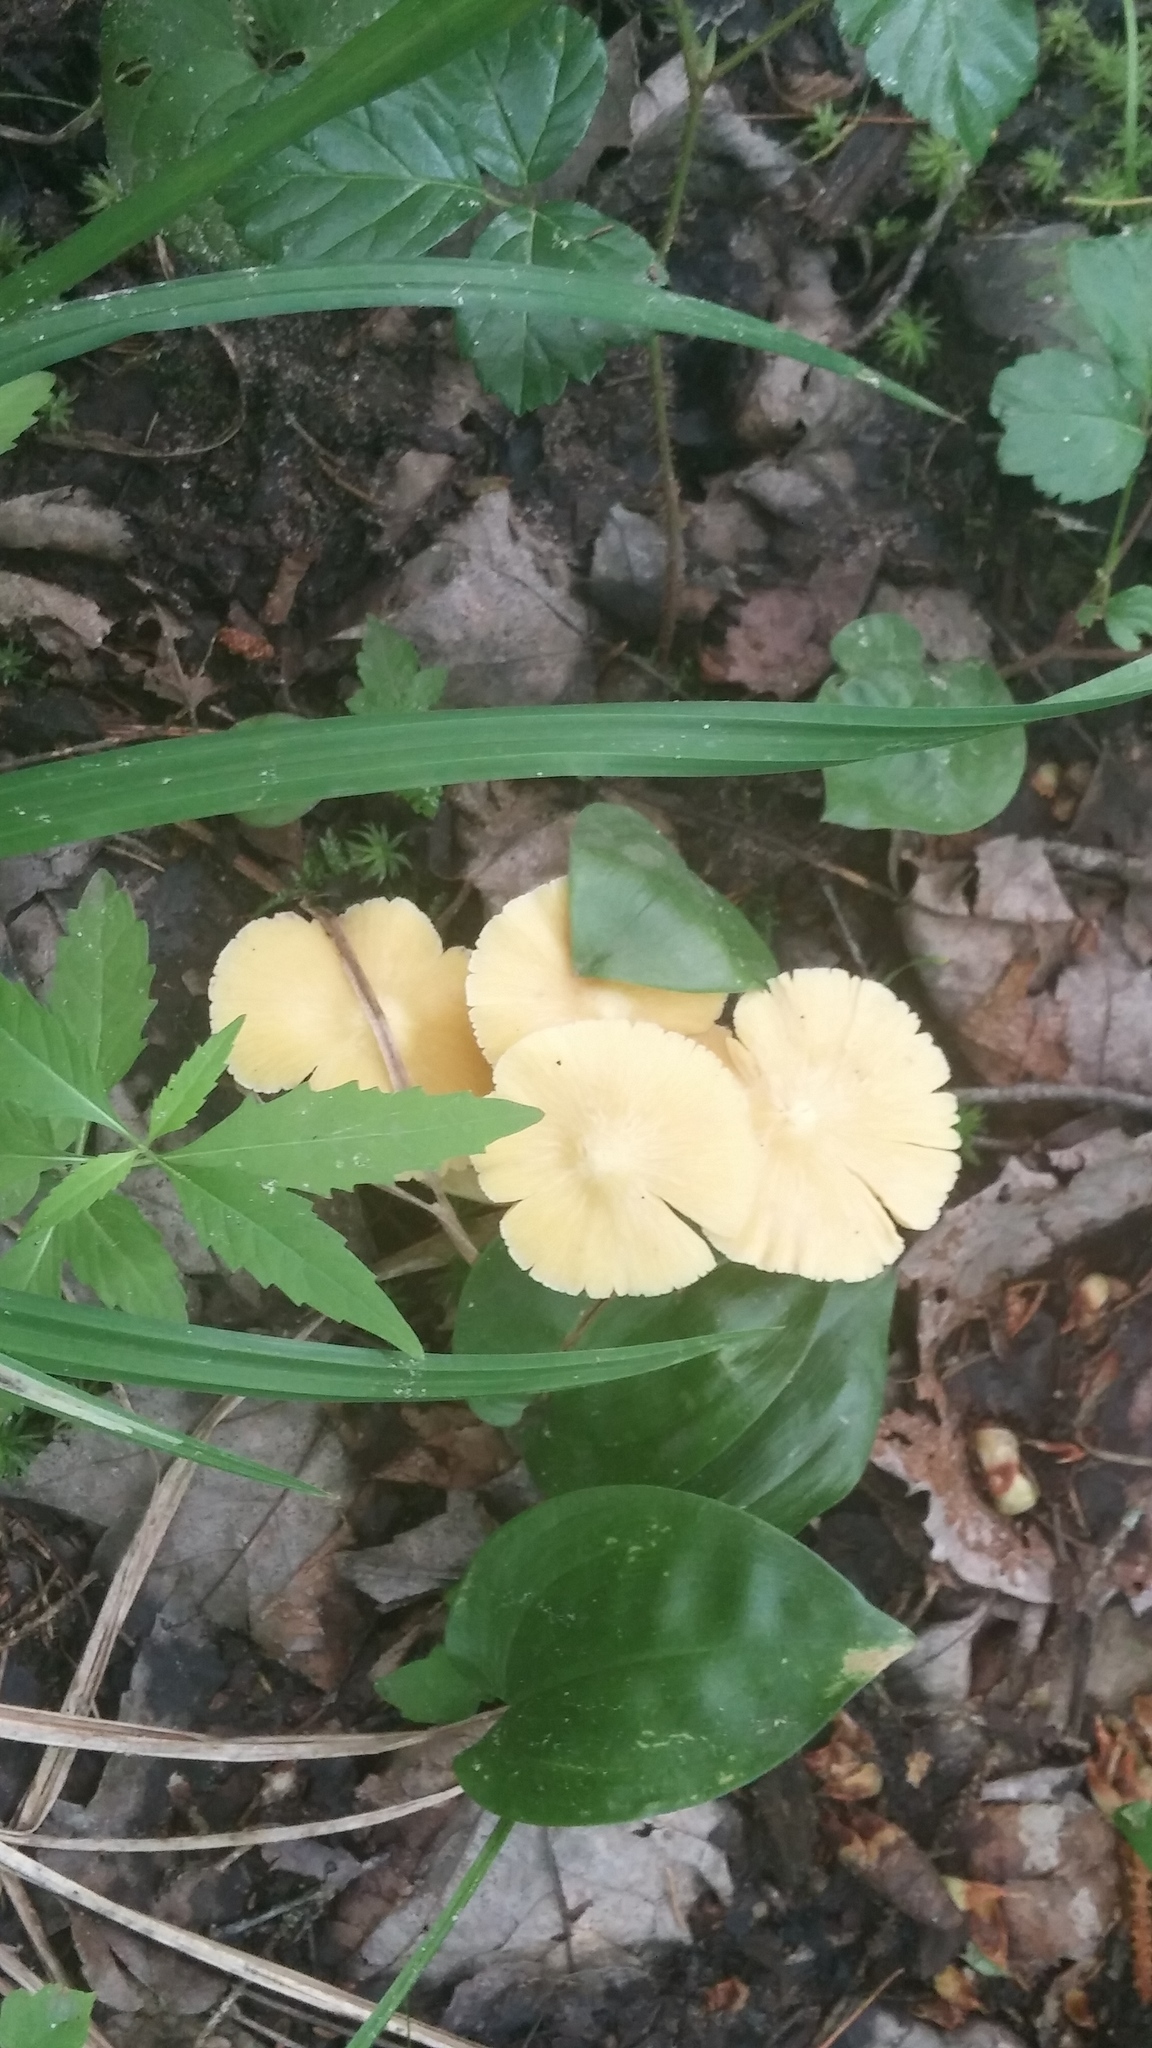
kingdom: Fungi
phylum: Basidiomycota
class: Agaricomycetes
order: Agaricales
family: Entolomataceae
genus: Entoloma
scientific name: Entoloma murrayi
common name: Yellow unicorn entoloma
